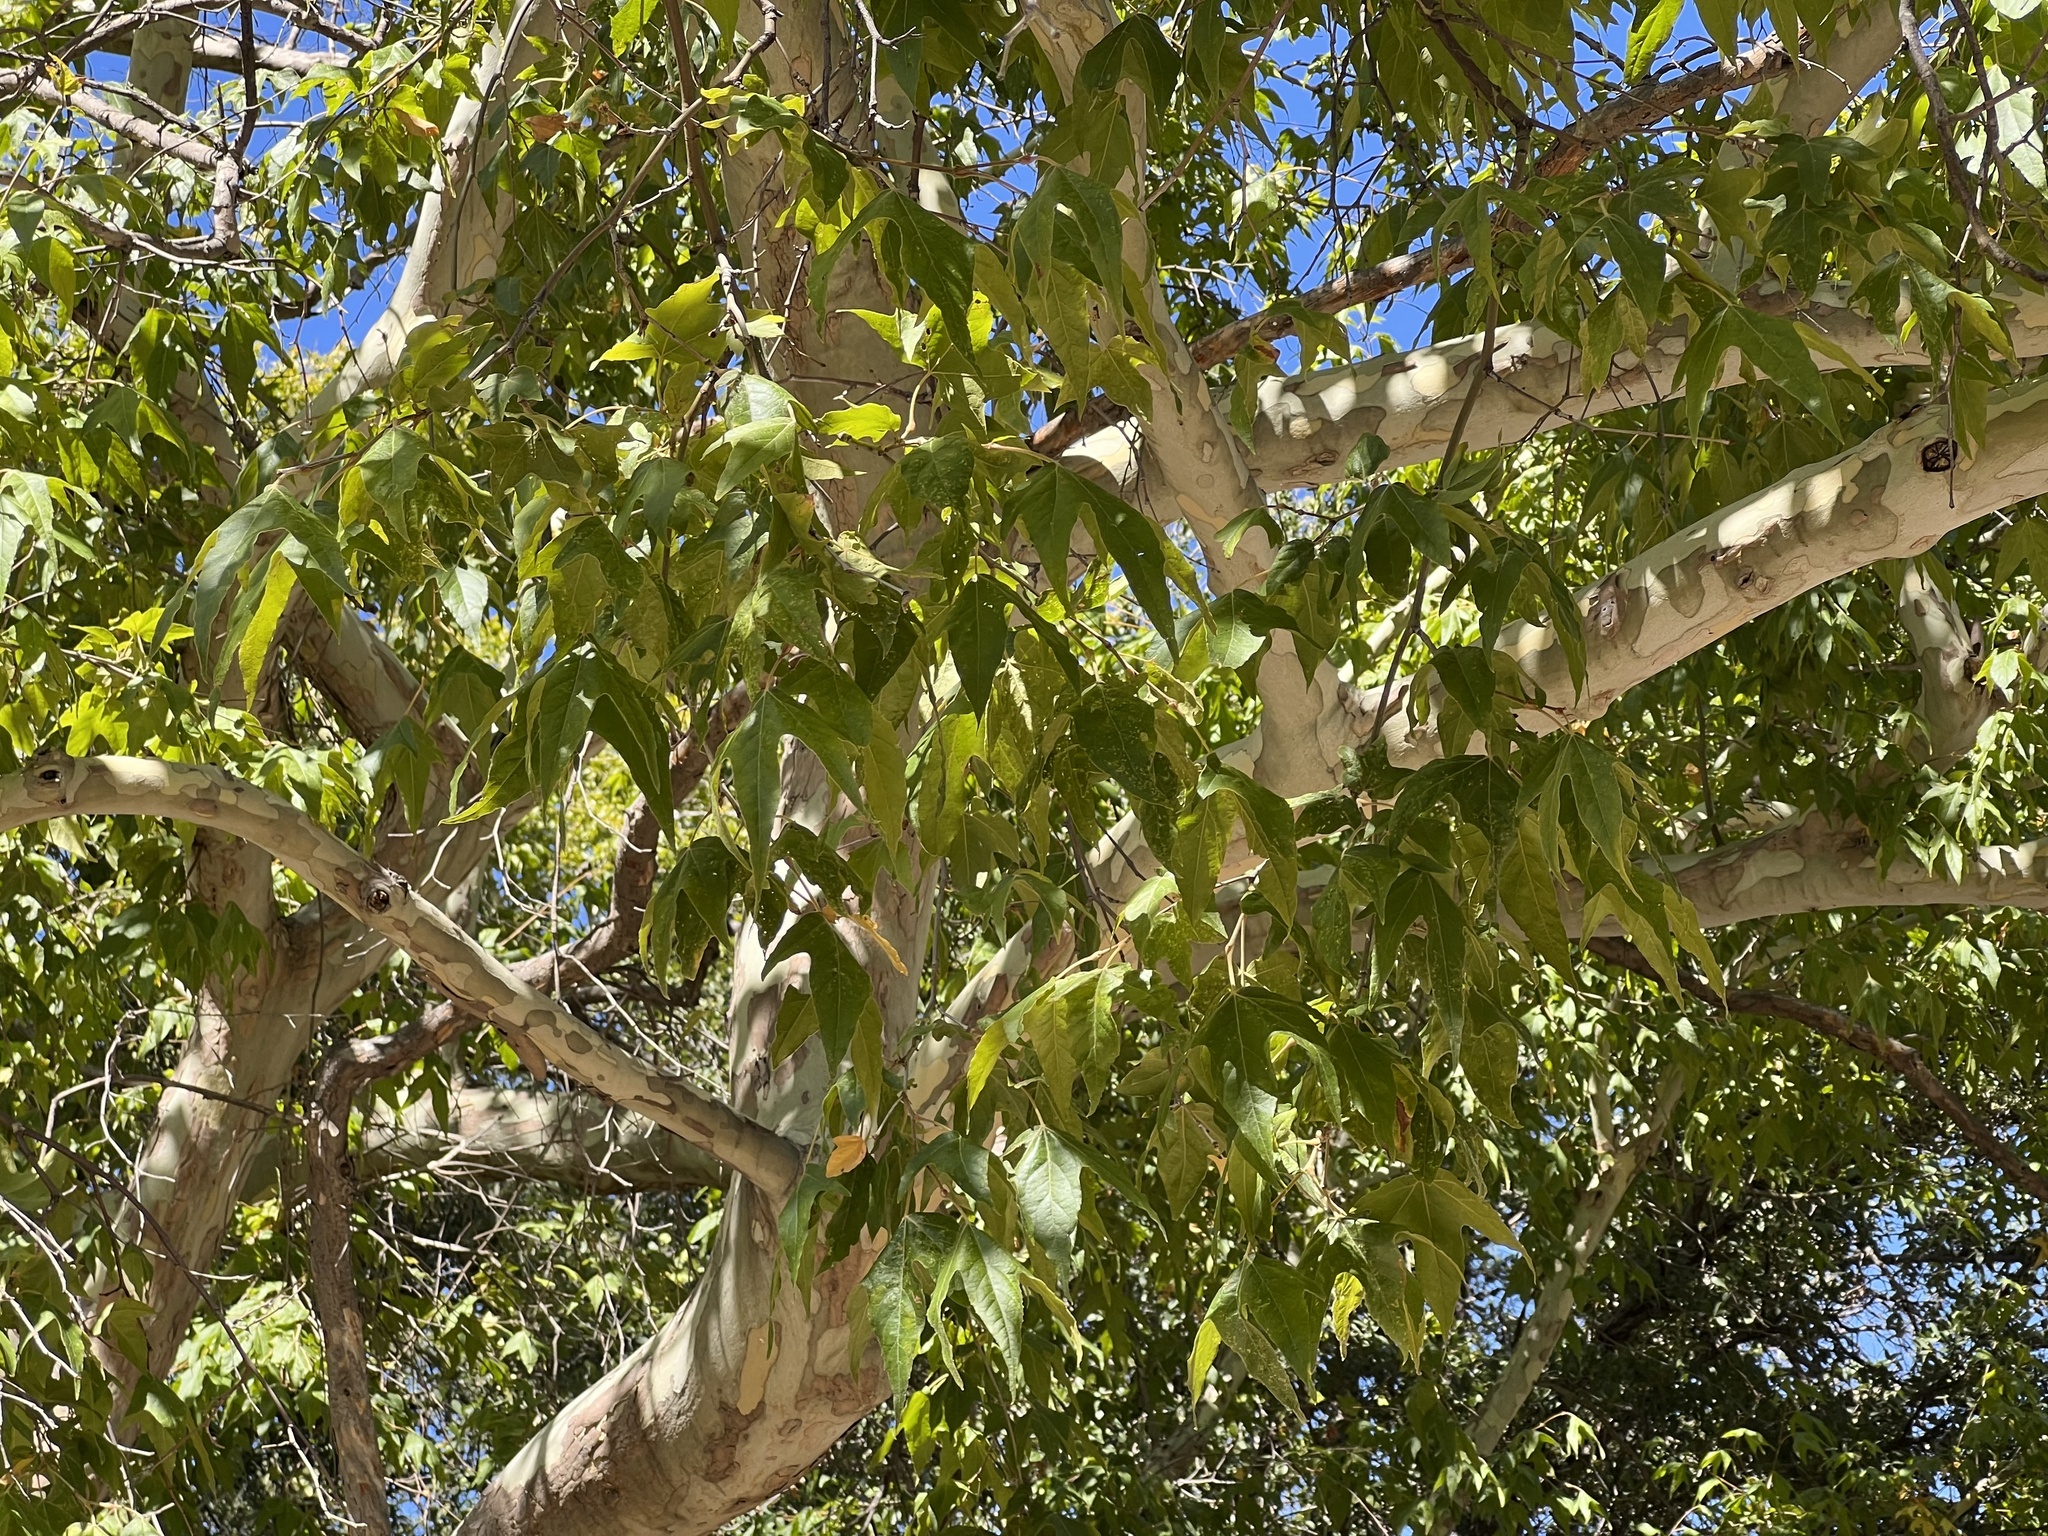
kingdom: Plantae
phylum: Tracheophyta
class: Magnoliopsida
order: Proteales
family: Platanaceae
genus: Platanus
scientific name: Platanus wrightii
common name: Arizona sycamore
